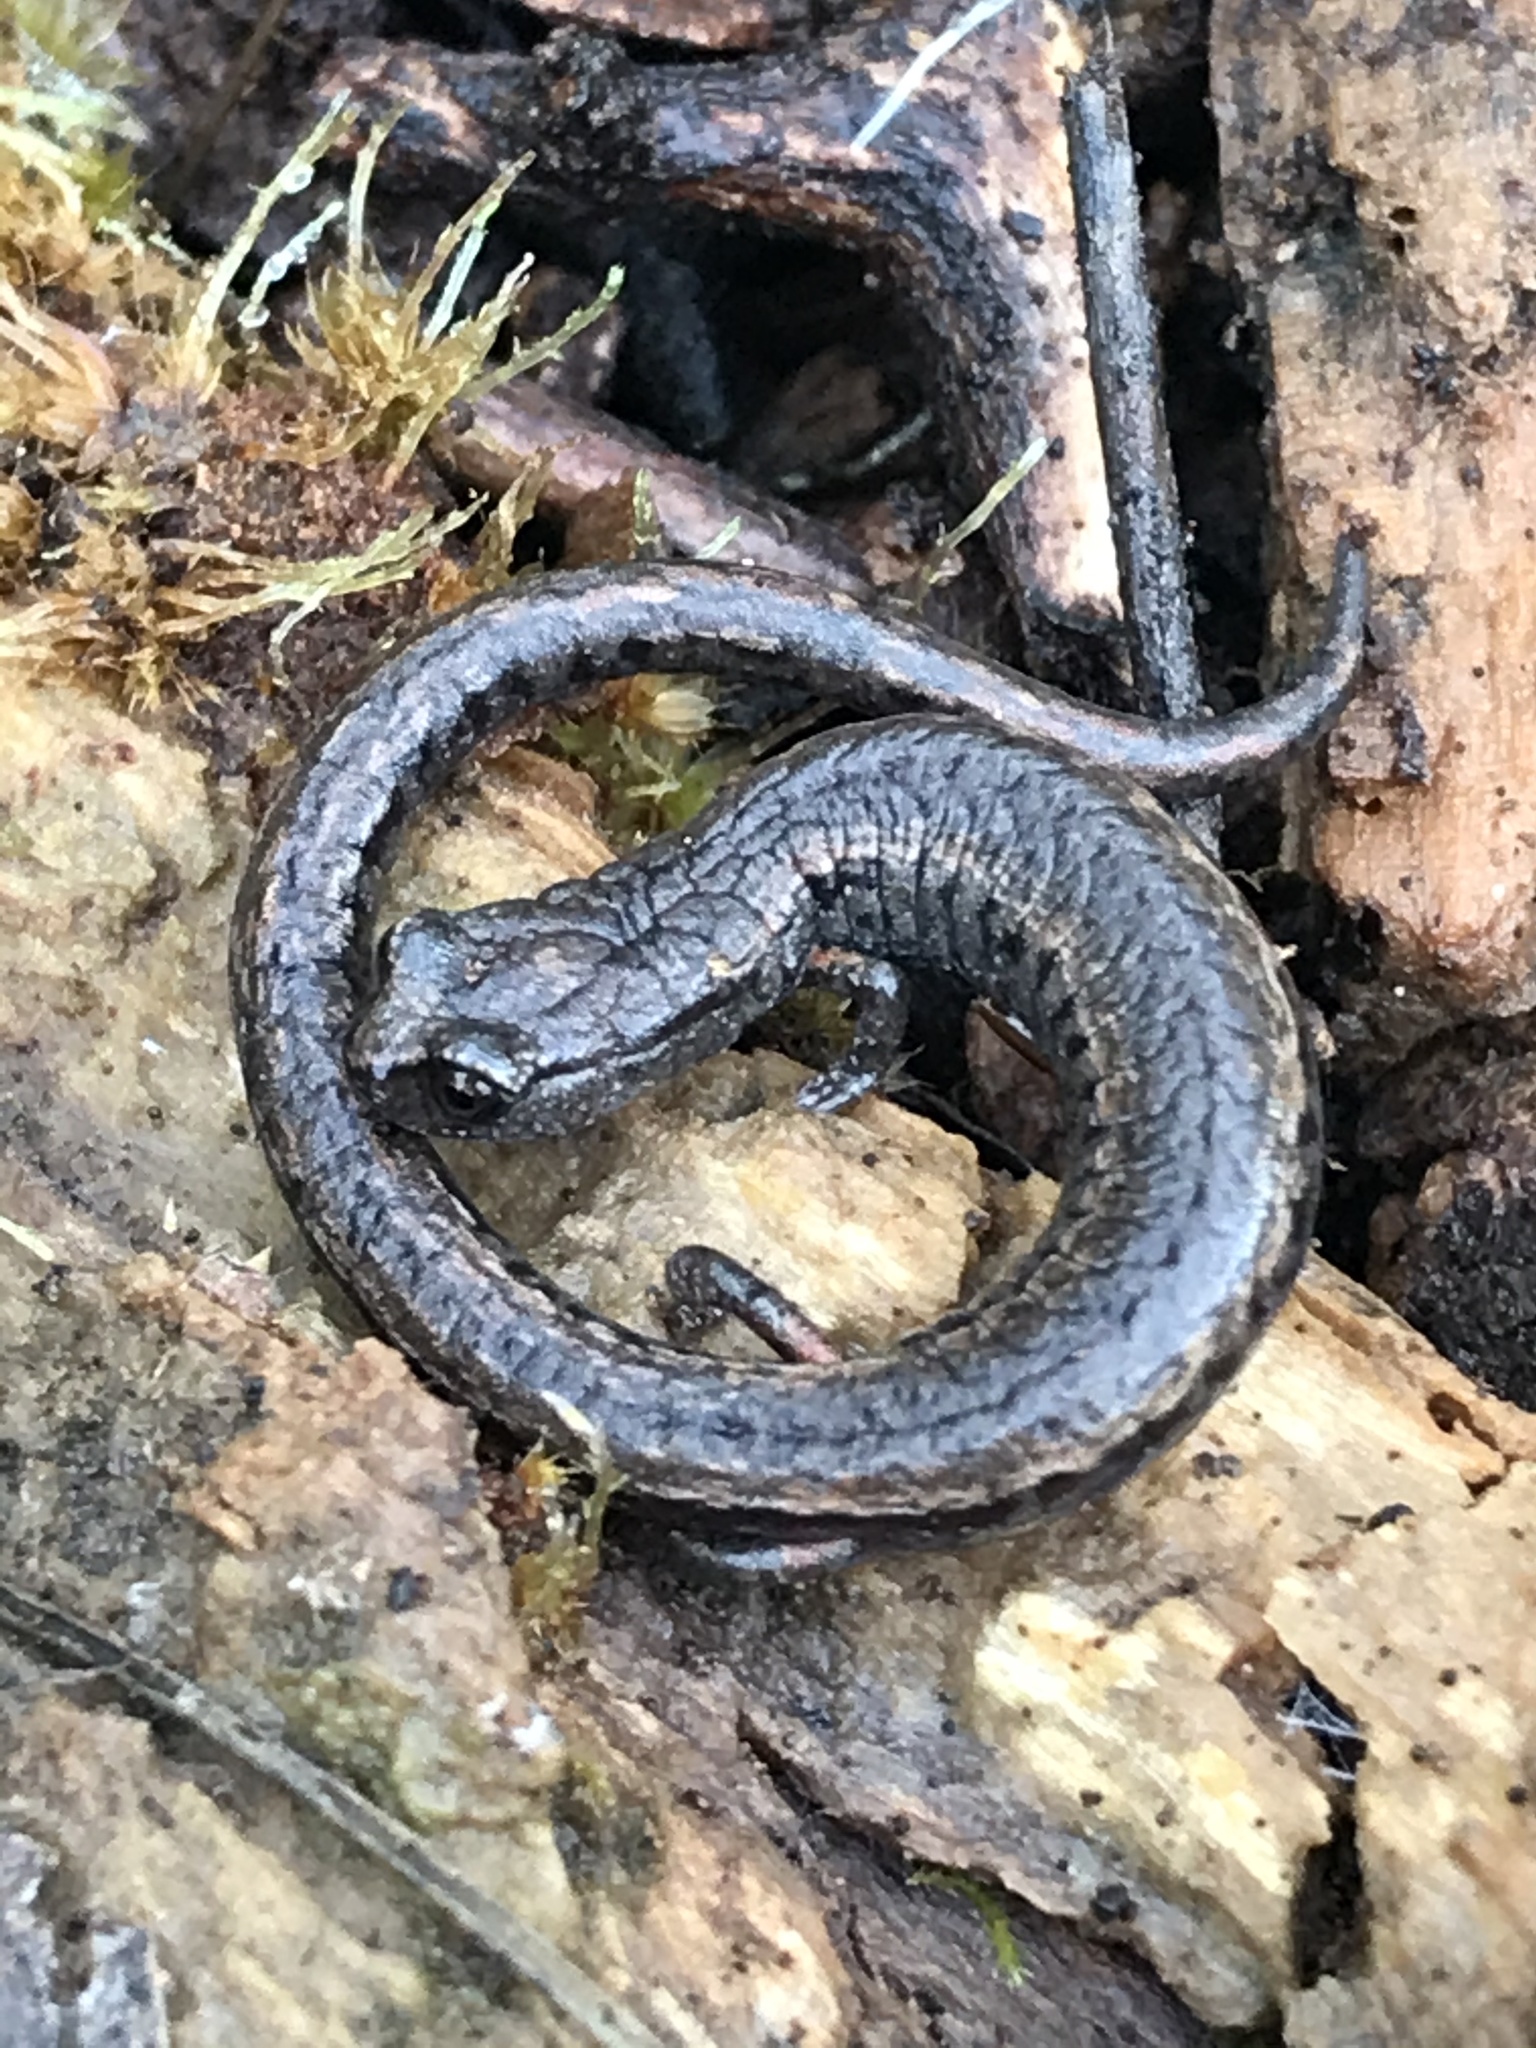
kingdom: Animalia
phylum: Chordata
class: Amphibia
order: Caudata
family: Plethodontidae
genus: Batrachoseps
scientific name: Batrachoseps attenuatus
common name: California slender salamander
